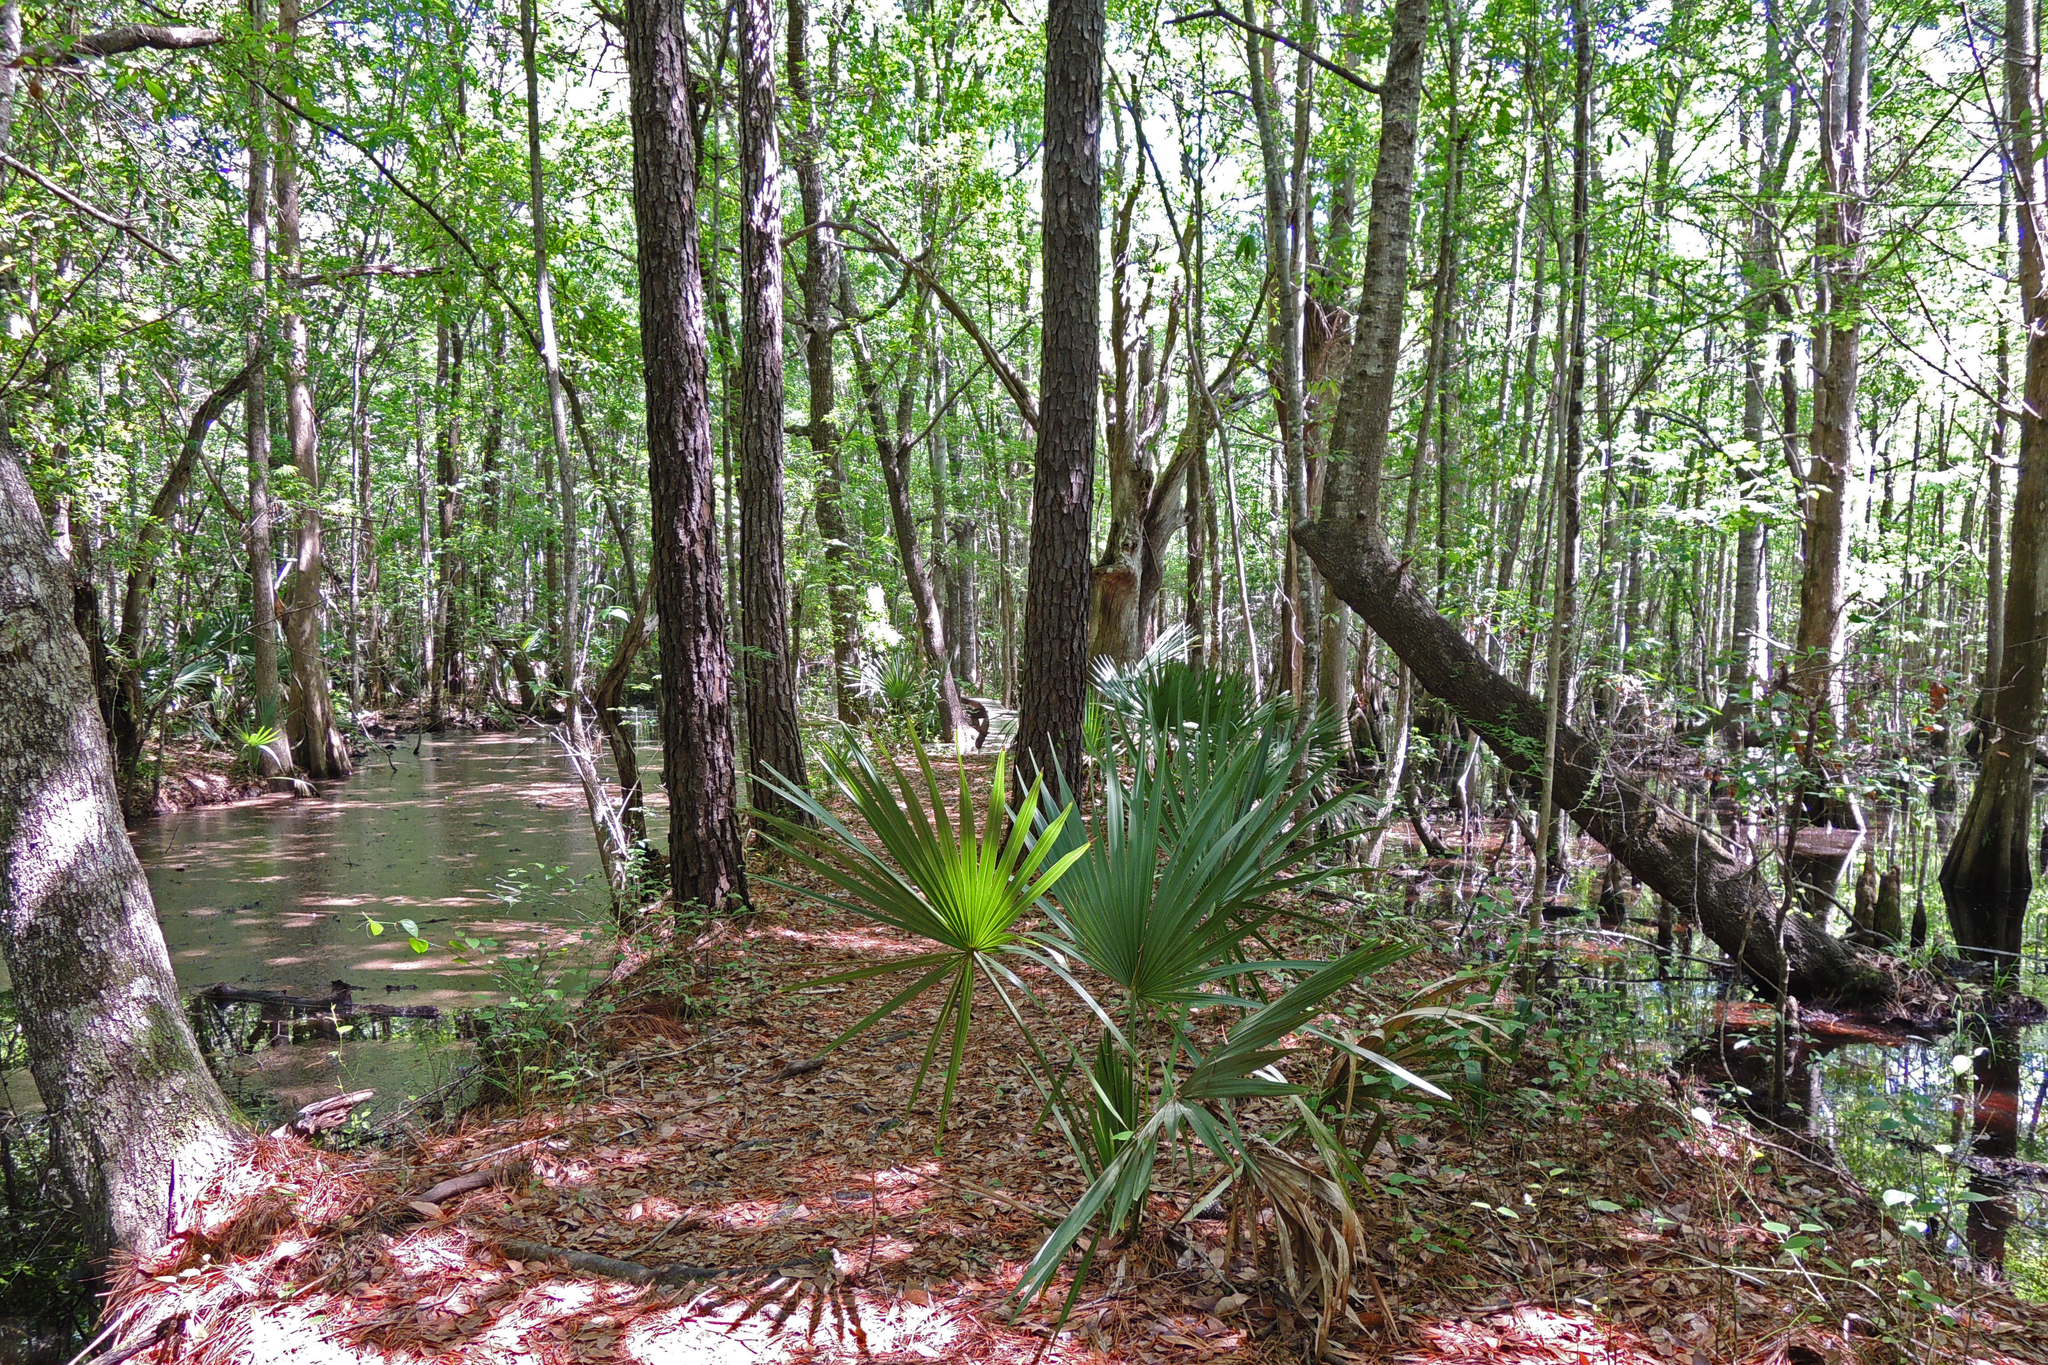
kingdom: Plantae
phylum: Tracheophyta
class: Liliopsida
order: Arecales
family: Arecaceae
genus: Sabal
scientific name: Sabal minor
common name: Dwarf palmetto
